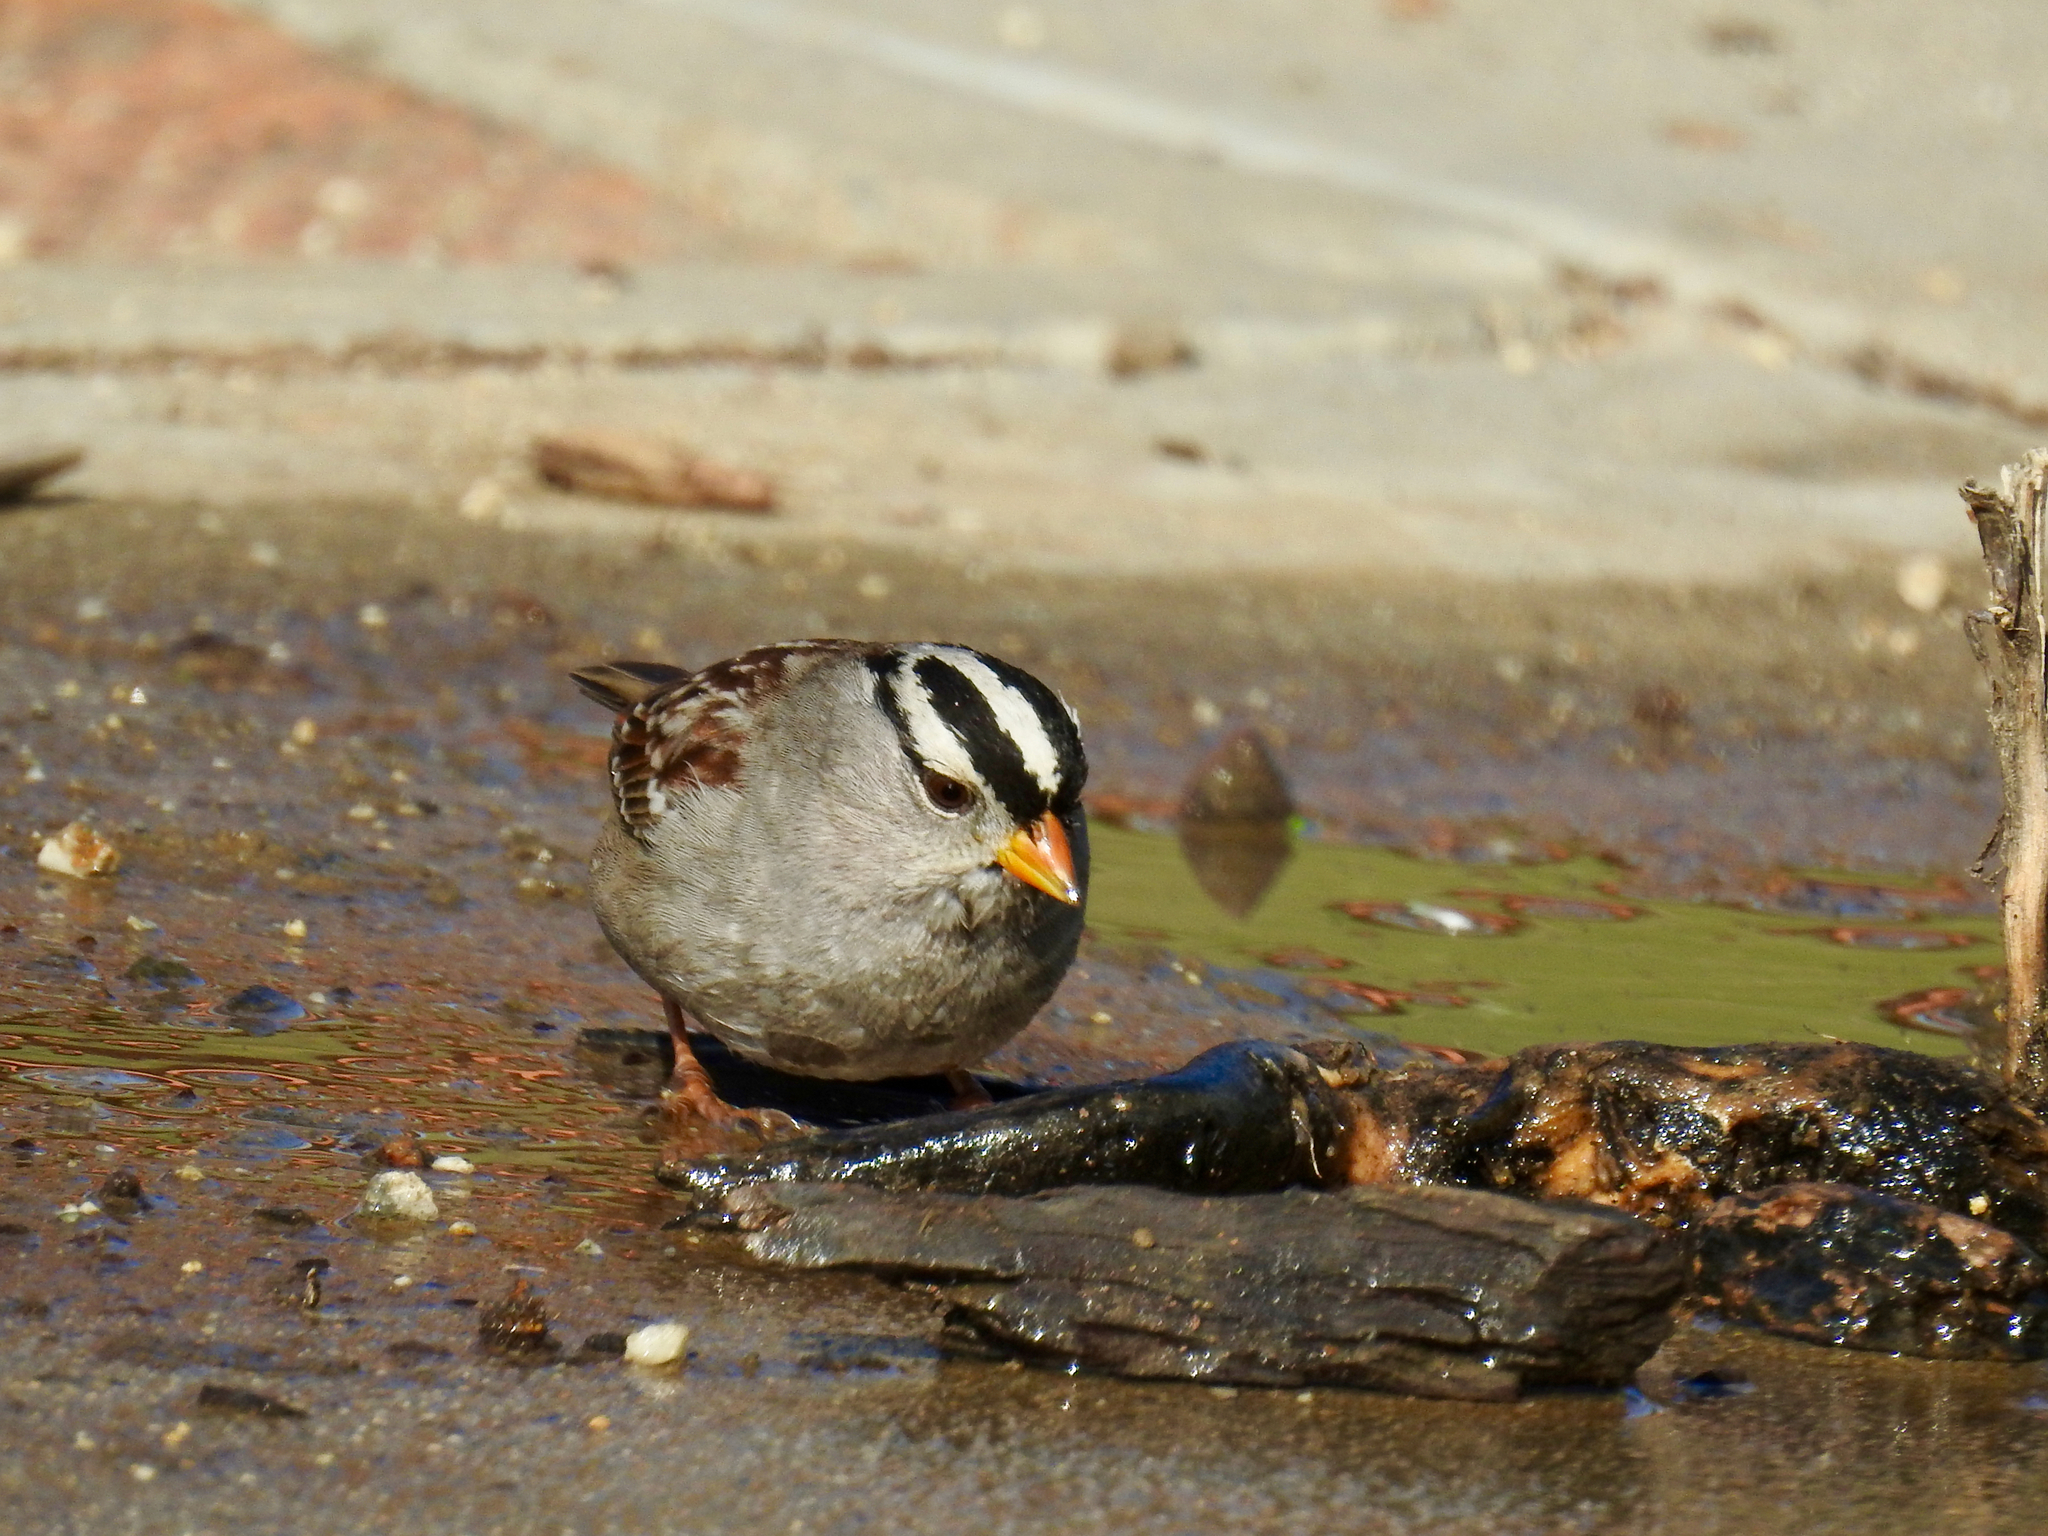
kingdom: Animalia
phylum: Chordata
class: Aves
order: Passeriformes
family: Passerellidae
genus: Zonotrichia
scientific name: Zonotrichia leucophrys
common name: White-crowned sparrow
